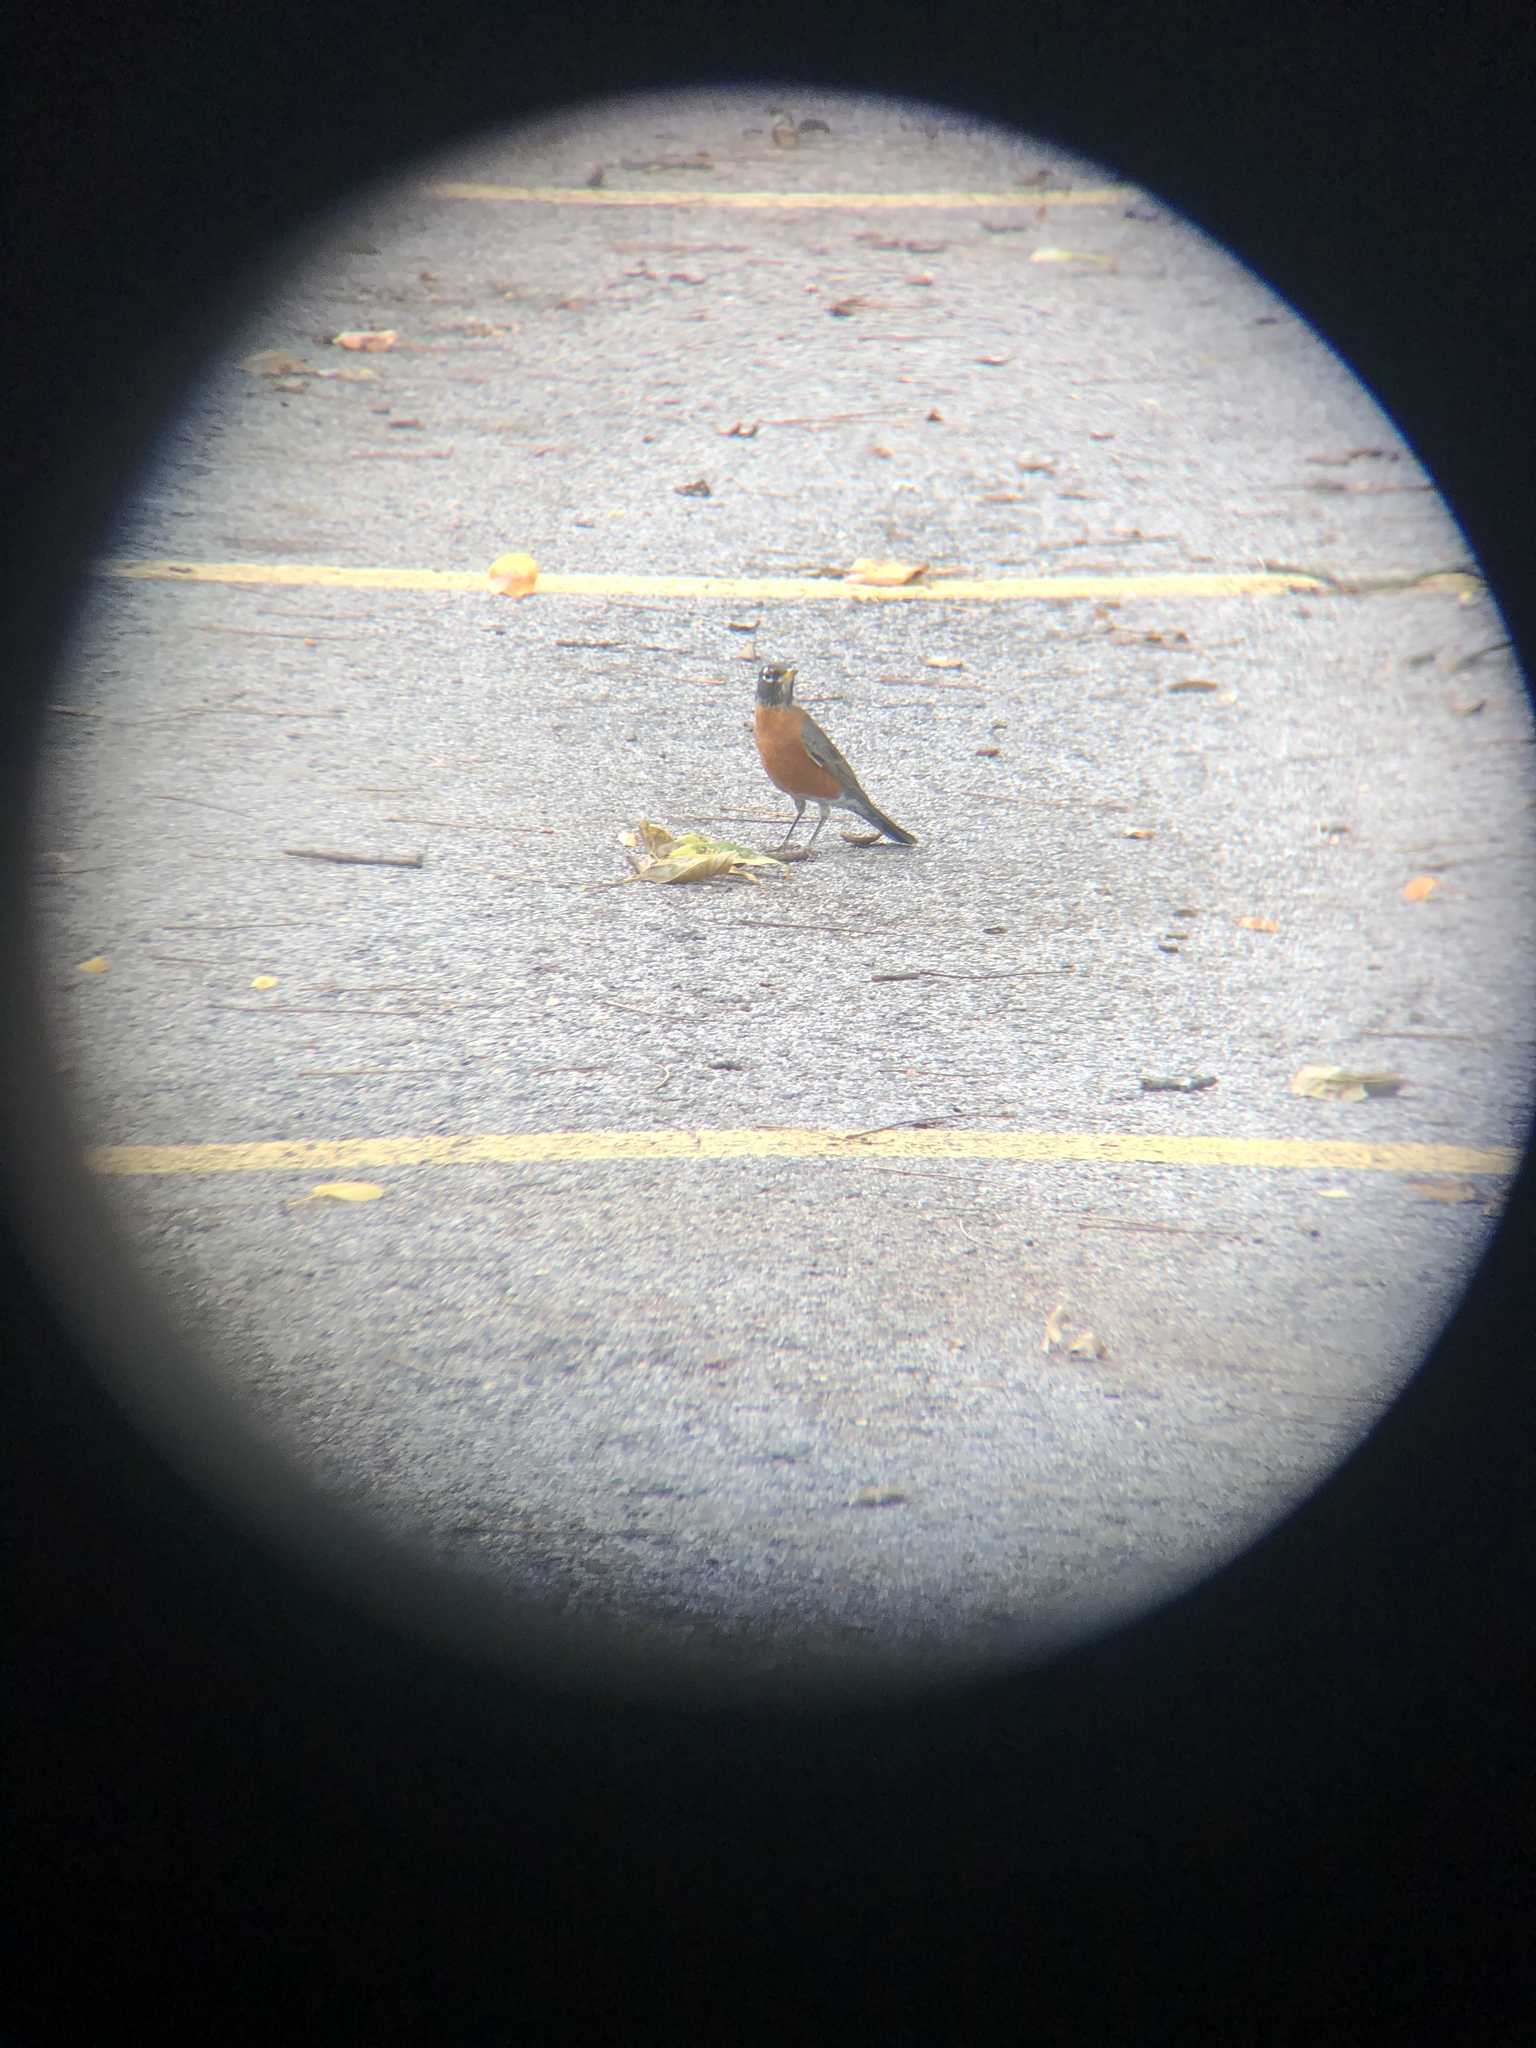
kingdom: Animalia
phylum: Chordata
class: Aves
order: Passeriformes
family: Turdidae
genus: Turdus
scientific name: Turdus migratorius
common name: American robin
